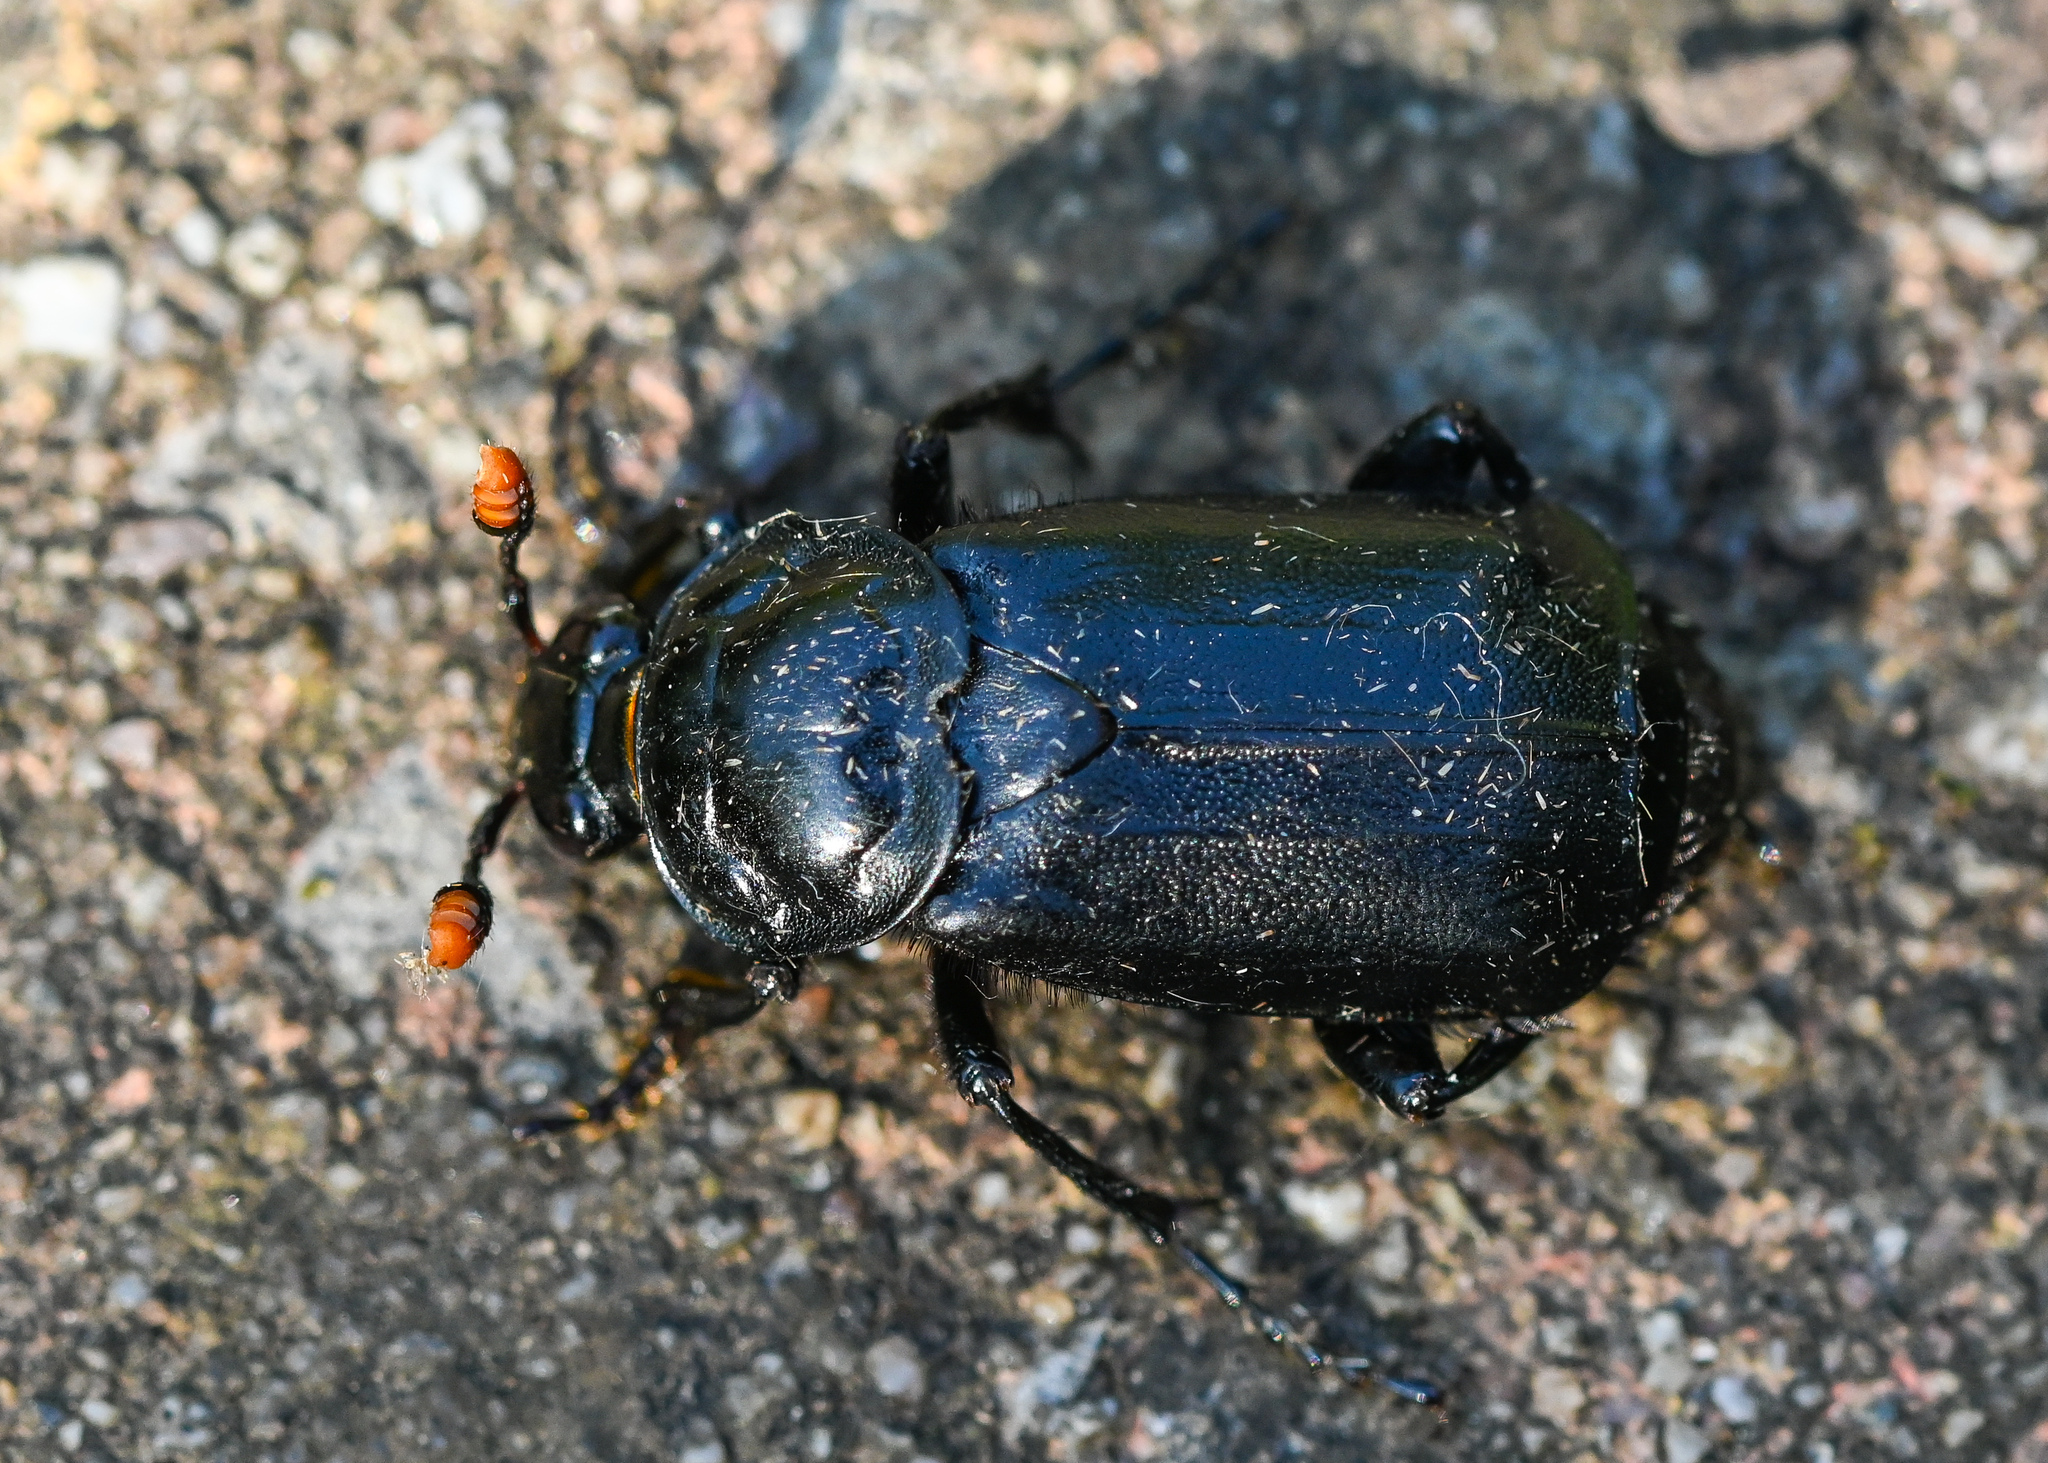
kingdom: Animalia
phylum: Arthropoda
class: Insecta
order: Coleoptera
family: Staphylinidae
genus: Nicrophorus
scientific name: Nicrophorus humator
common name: Black sexton beetle
